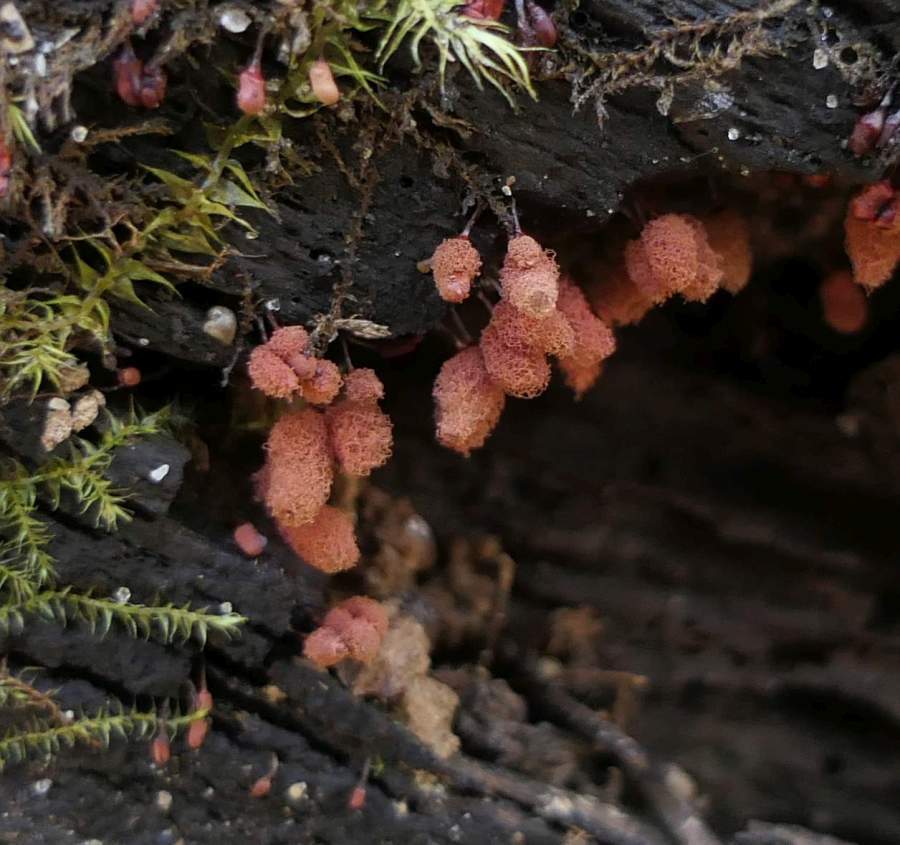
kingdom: Protozoa
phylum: Mycetozoa
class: Myxomycetes
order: Trichiales
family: Arcyriaceae
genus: Arcyria
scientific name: Arcyria denudata
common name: Carnival candy slime mold
